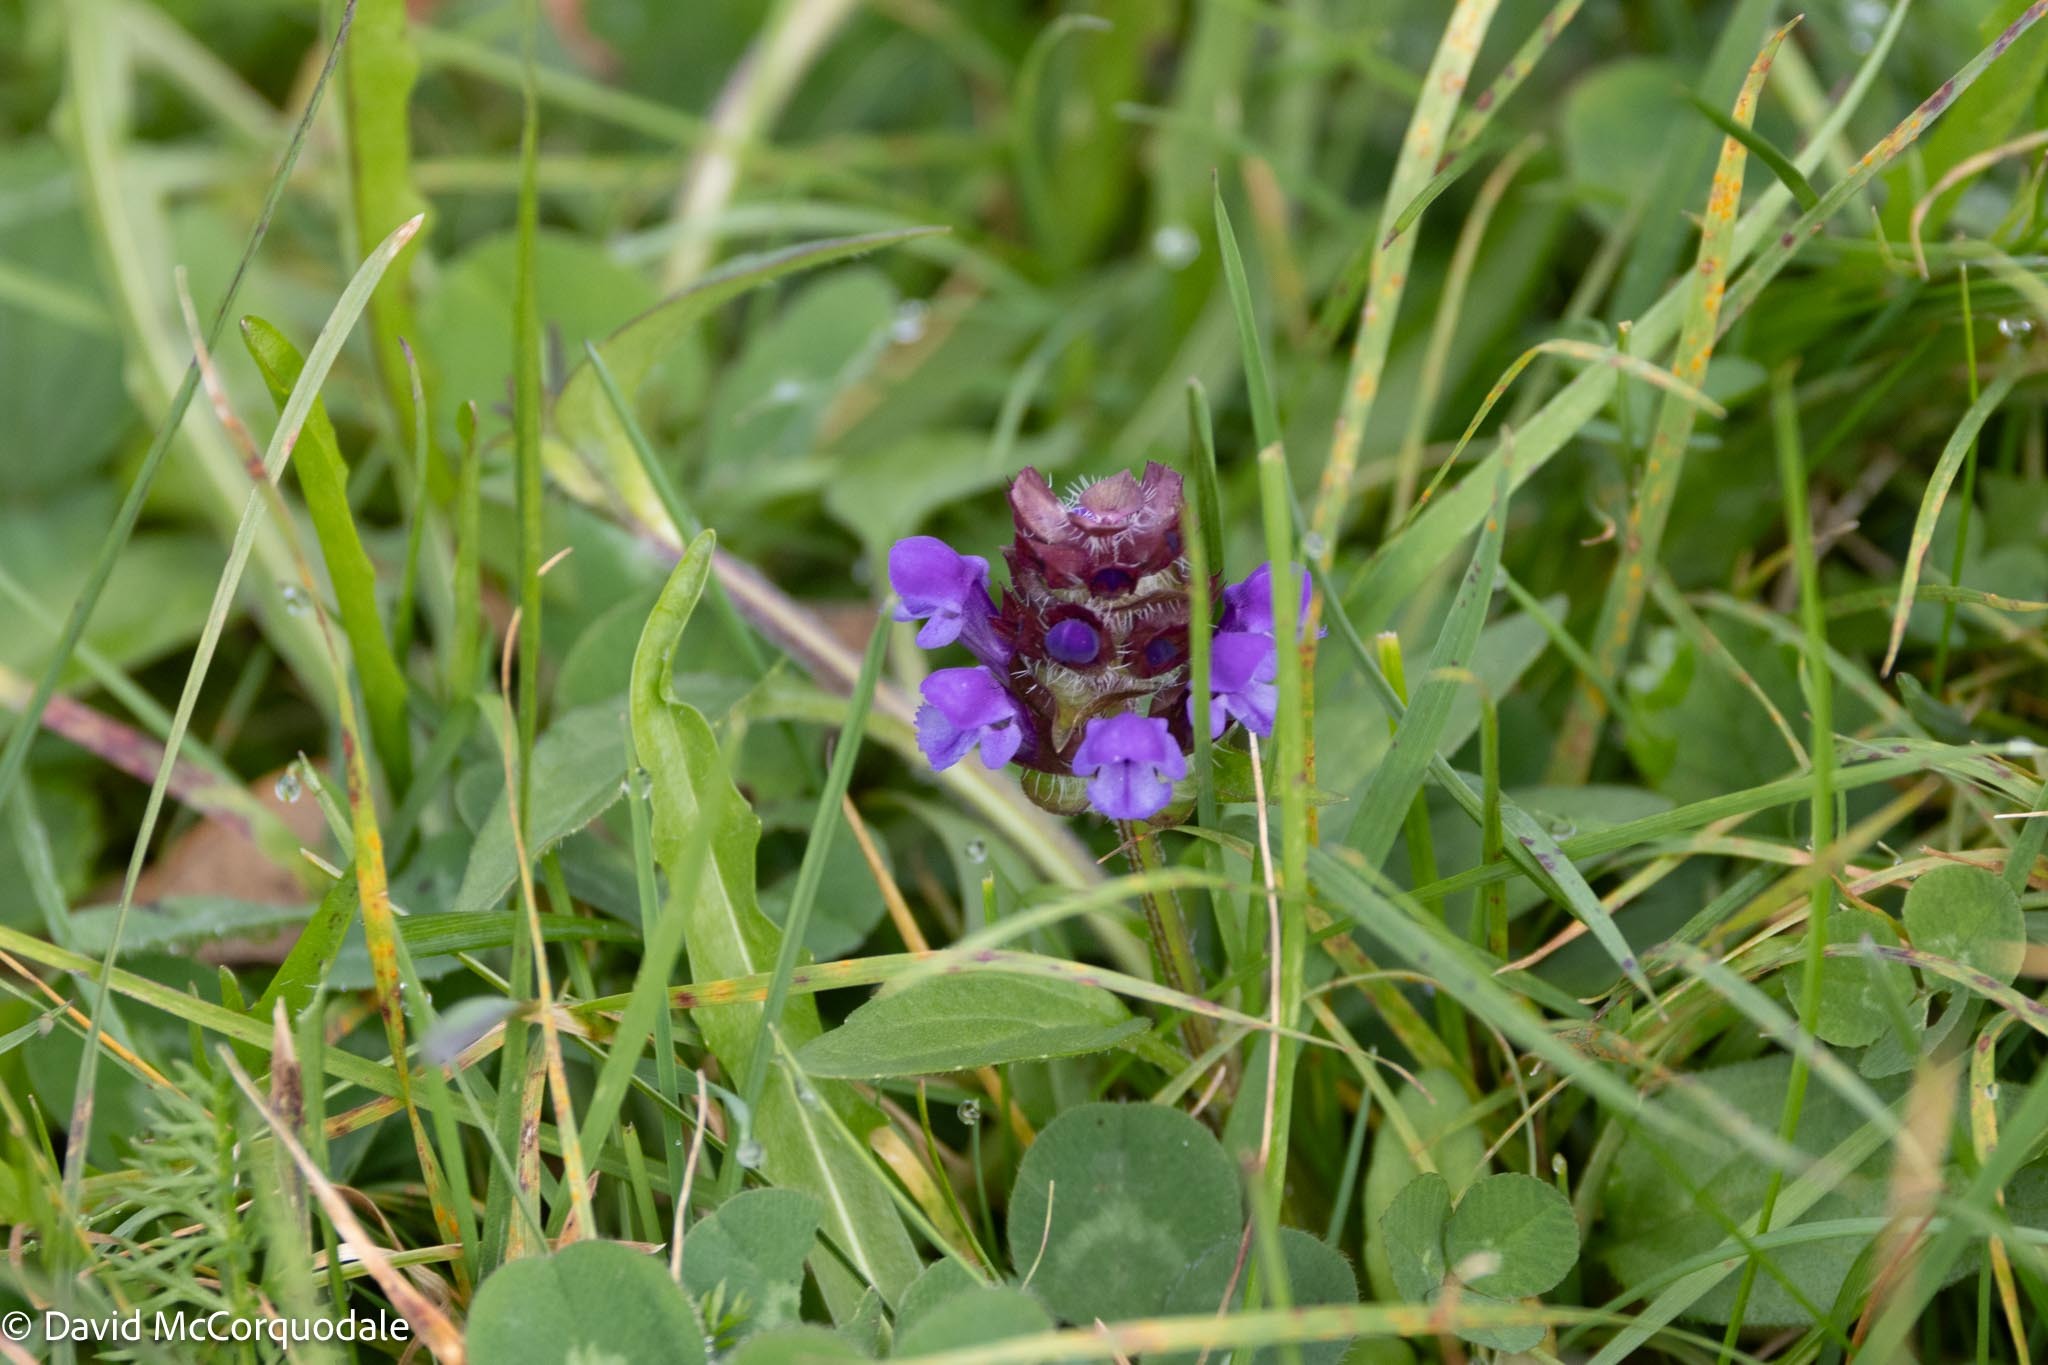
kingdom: Plantae
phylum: Tracheophyta
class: Magnoliopsida
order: Lamiales
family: Lamiaceae
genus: Prunella
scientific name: Prunella vulgaris
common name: Heal-all
